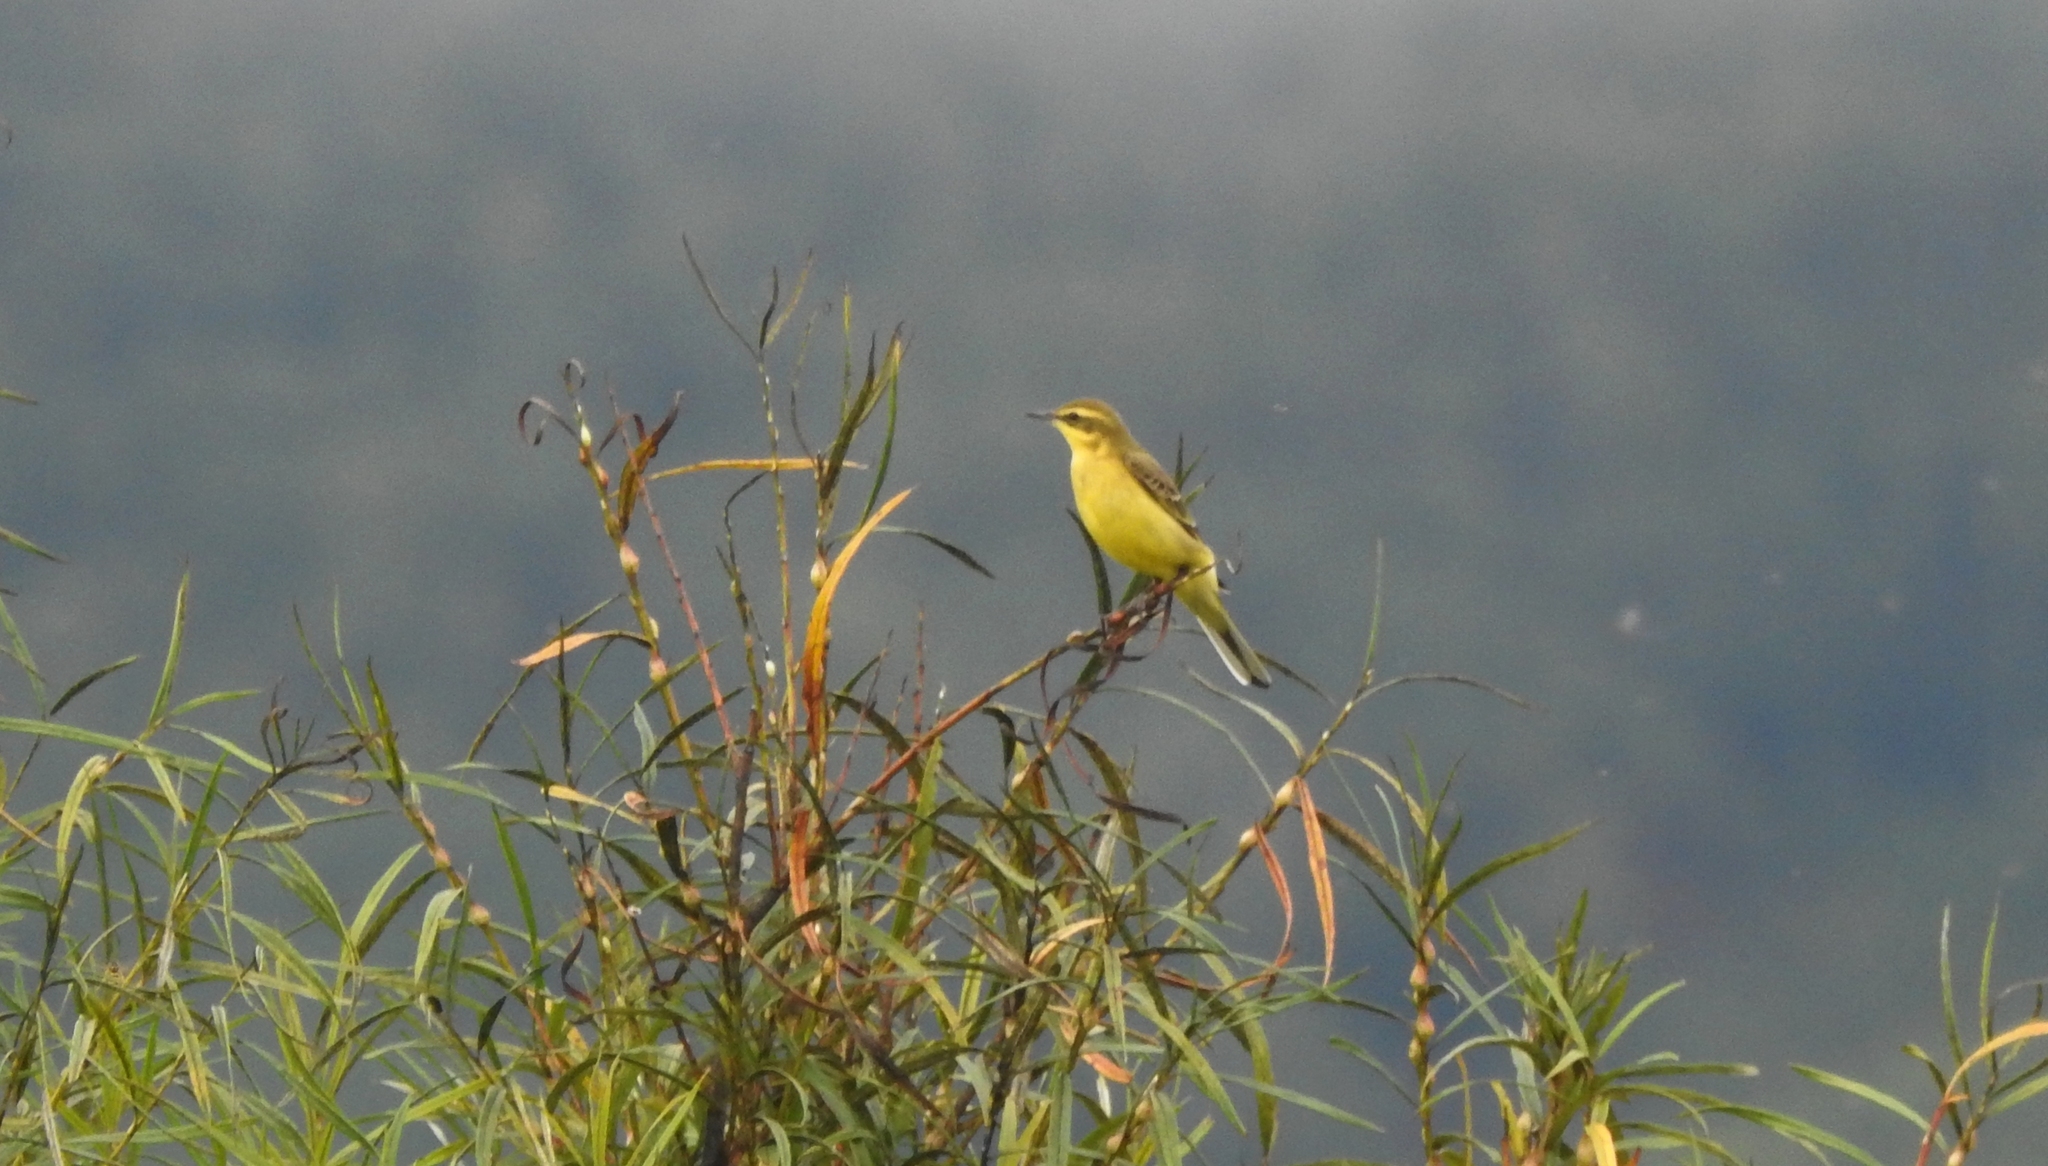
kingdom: Animalia
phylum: Chordata
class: Aves
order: Passeriformes
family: Motacillidae
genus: Motacilla
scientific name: Motacilla tschutschensis
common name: Eastern yellow wagtail
